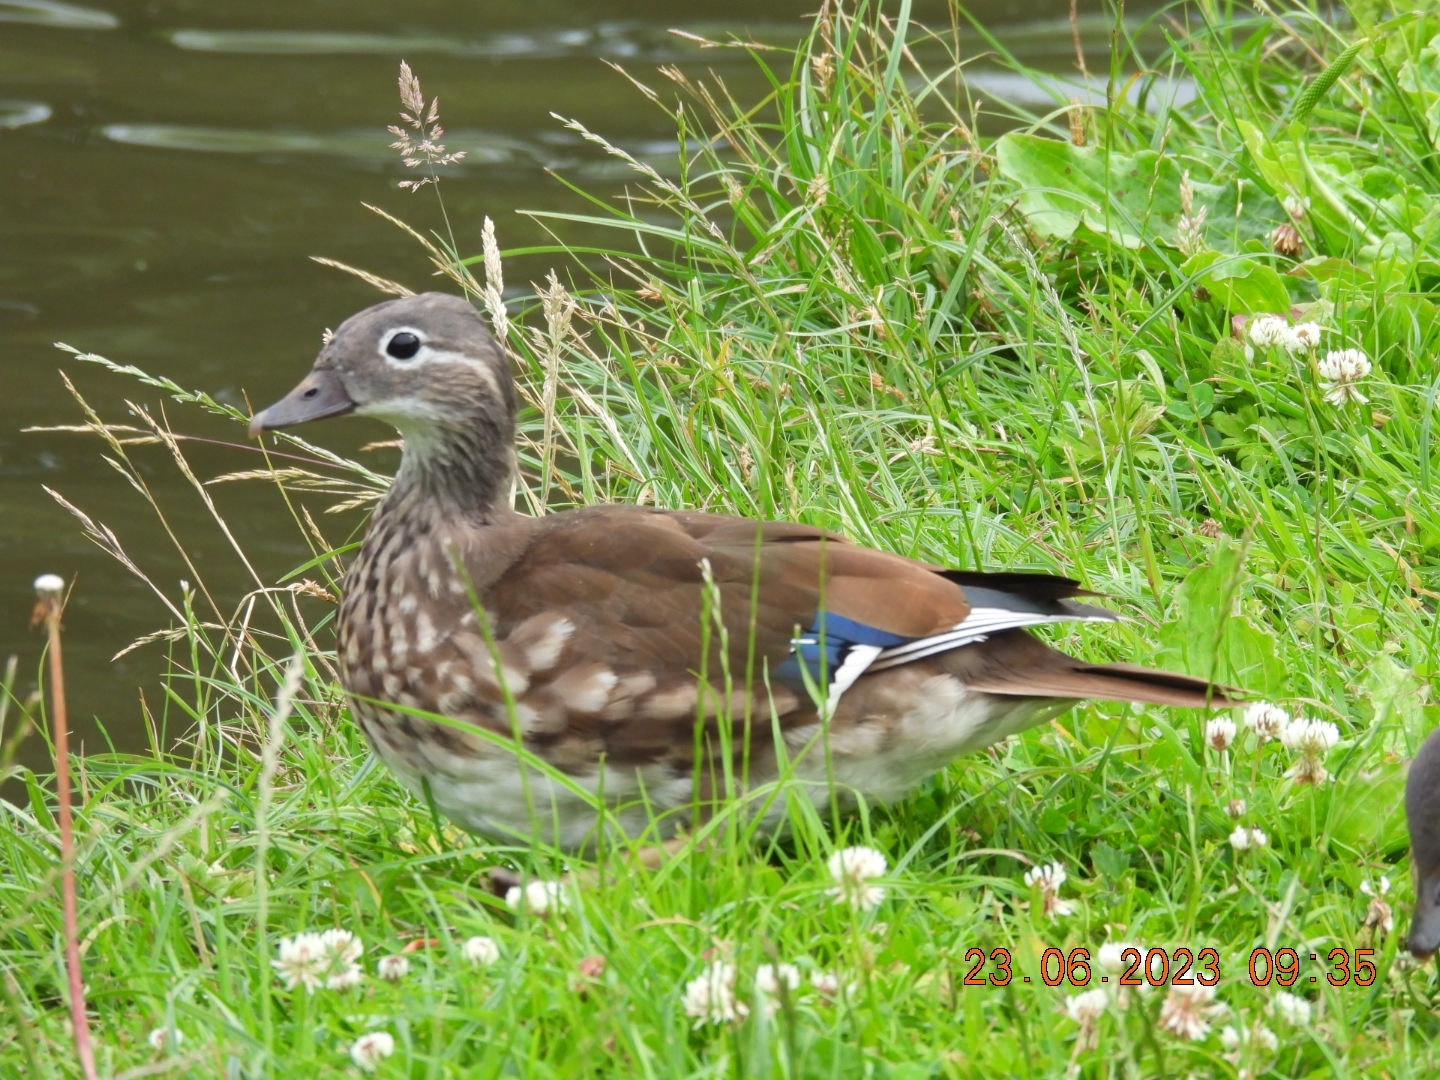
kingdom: Animalia
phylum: Chordata
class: Aves
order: Anseriformes
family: Anatidae
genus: Aix
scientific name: Aix galericulata
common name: Mandarin duck
